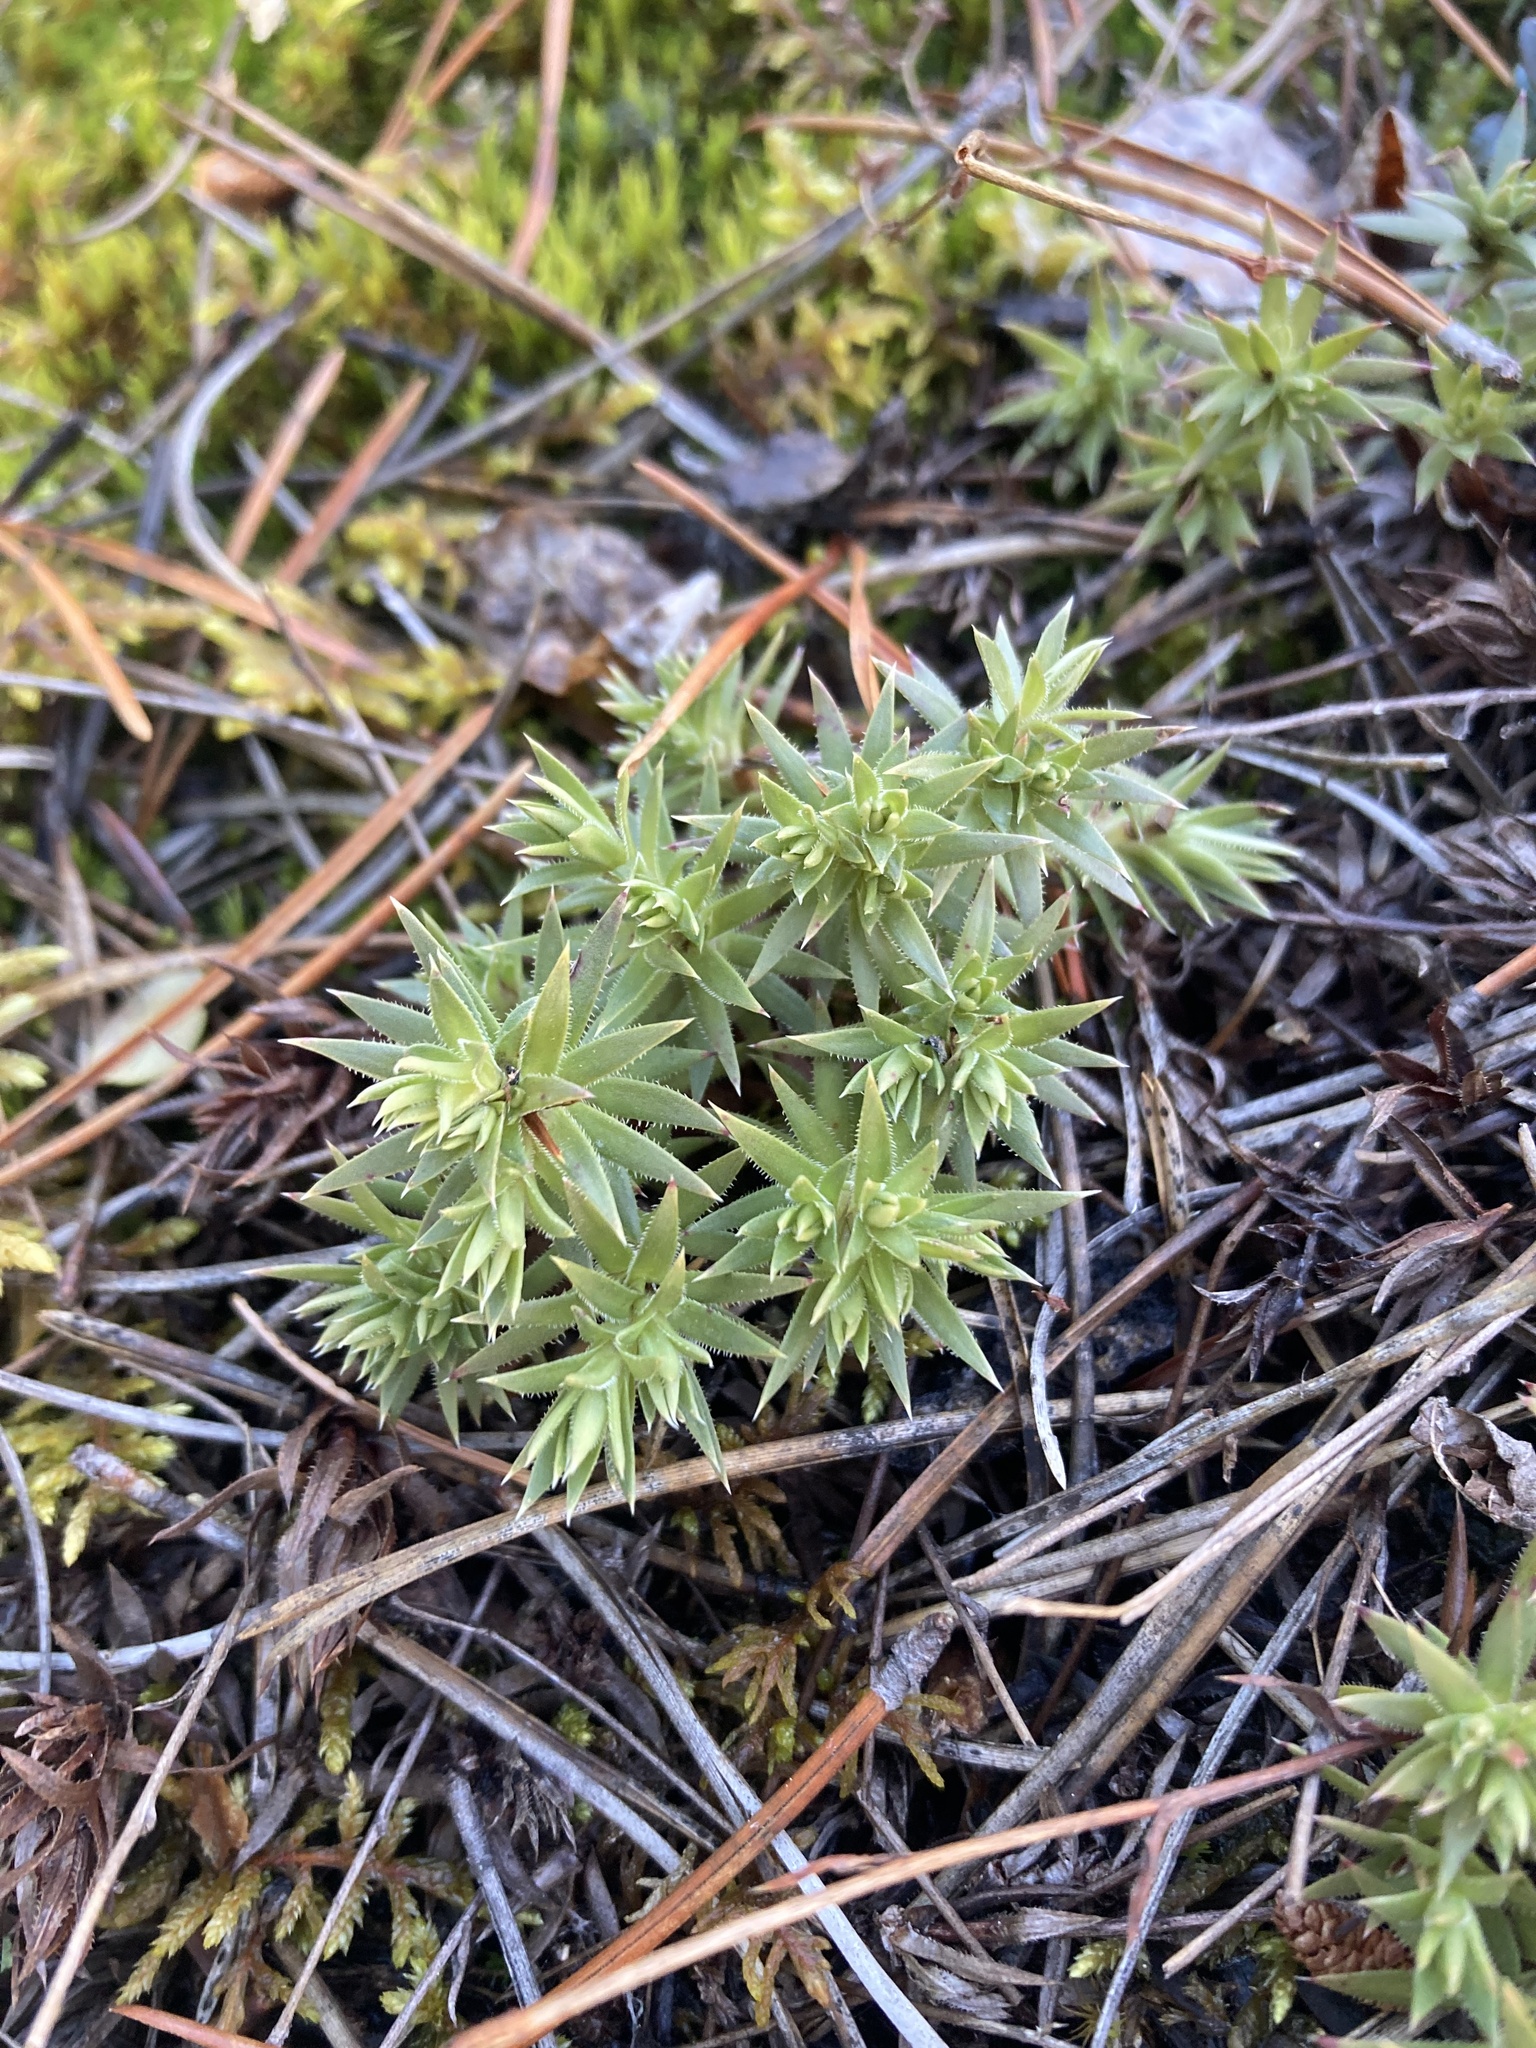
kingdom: Plantae
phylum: Tracheophyta
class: Magnoliopsida
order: Saxifragales
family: Saxifragaceae
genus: Saxifraga
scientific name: Saxifraga bronchialis
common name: Matted saxifrage
